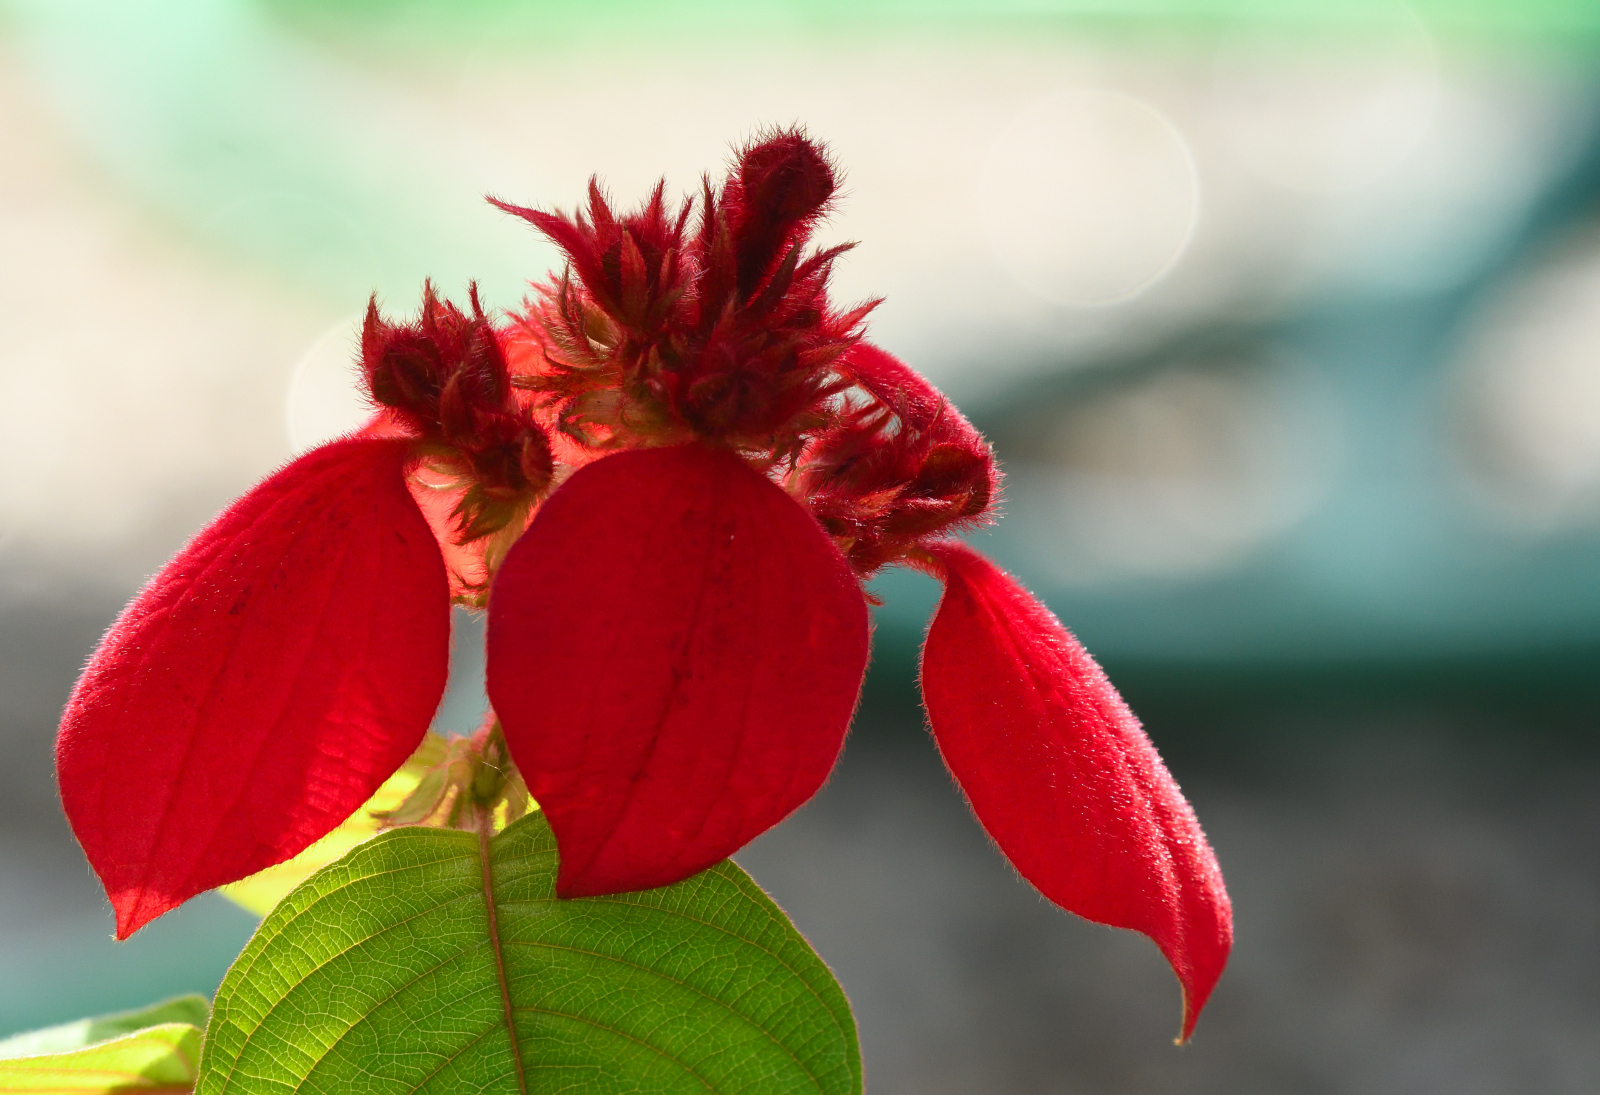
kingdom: Plantae
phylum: Tracheophyta
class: Magnoliopsida
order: Gentianales
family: Rubiaceae
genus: Mussaenda
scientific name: Mussaenda erythrophylla
